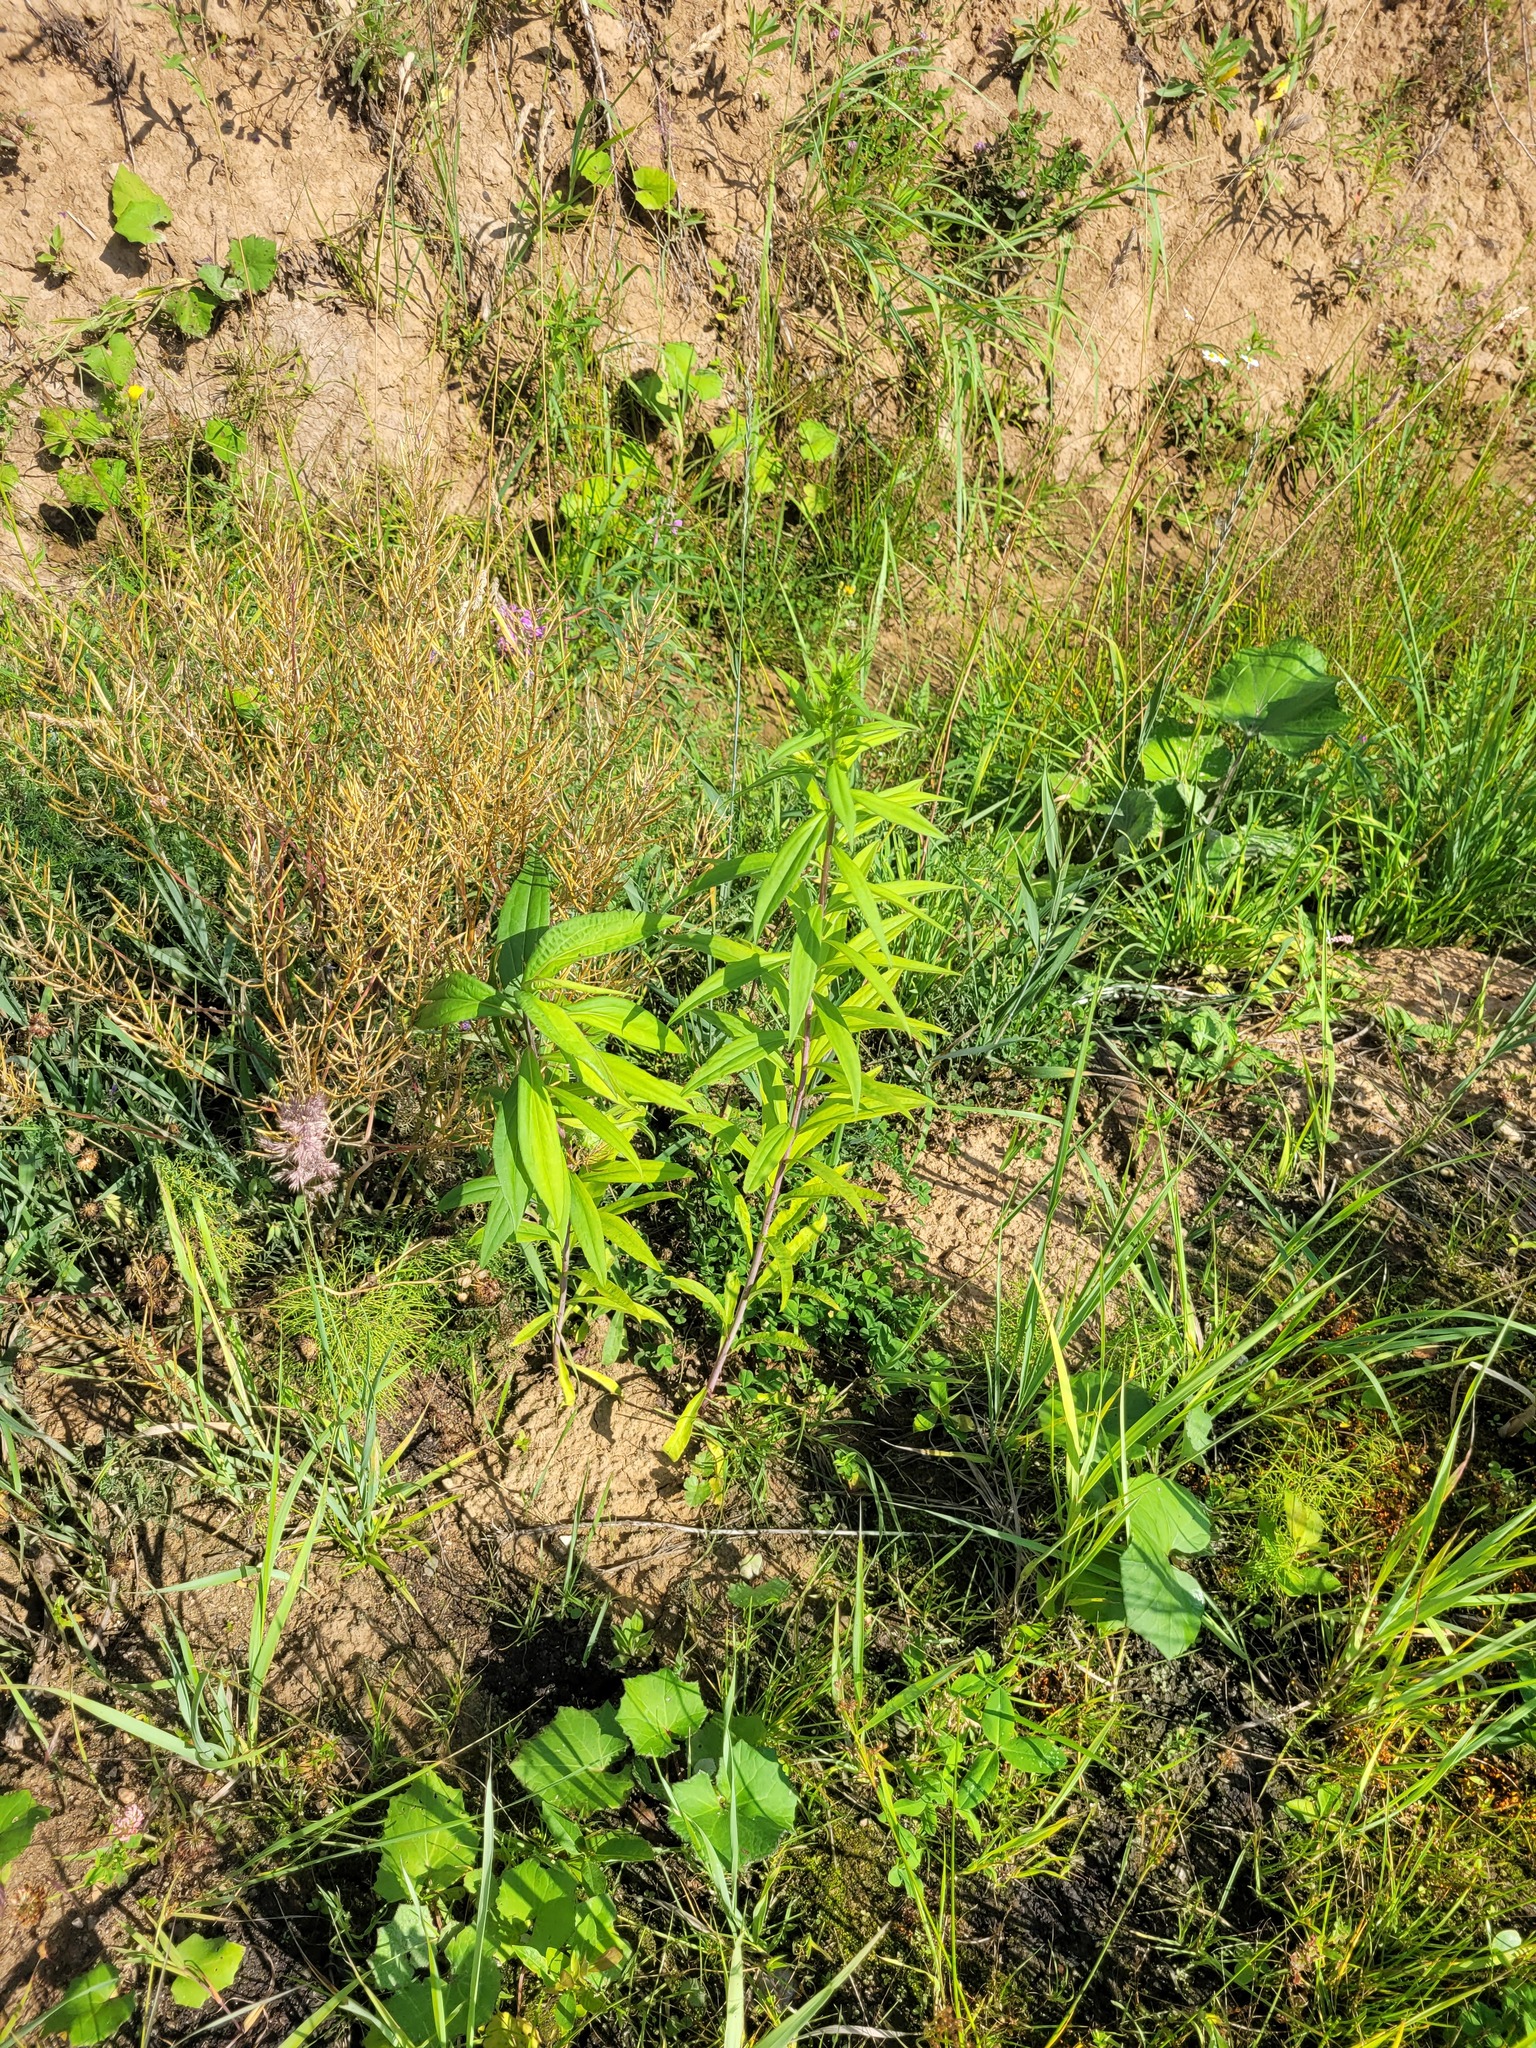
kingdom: Plantae
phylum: Tracheophyta
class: Magnoliopsida
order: Asterales
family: Asteraceae
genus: Solidago
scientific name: Solidago gigantea
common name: Giant goldenrod
